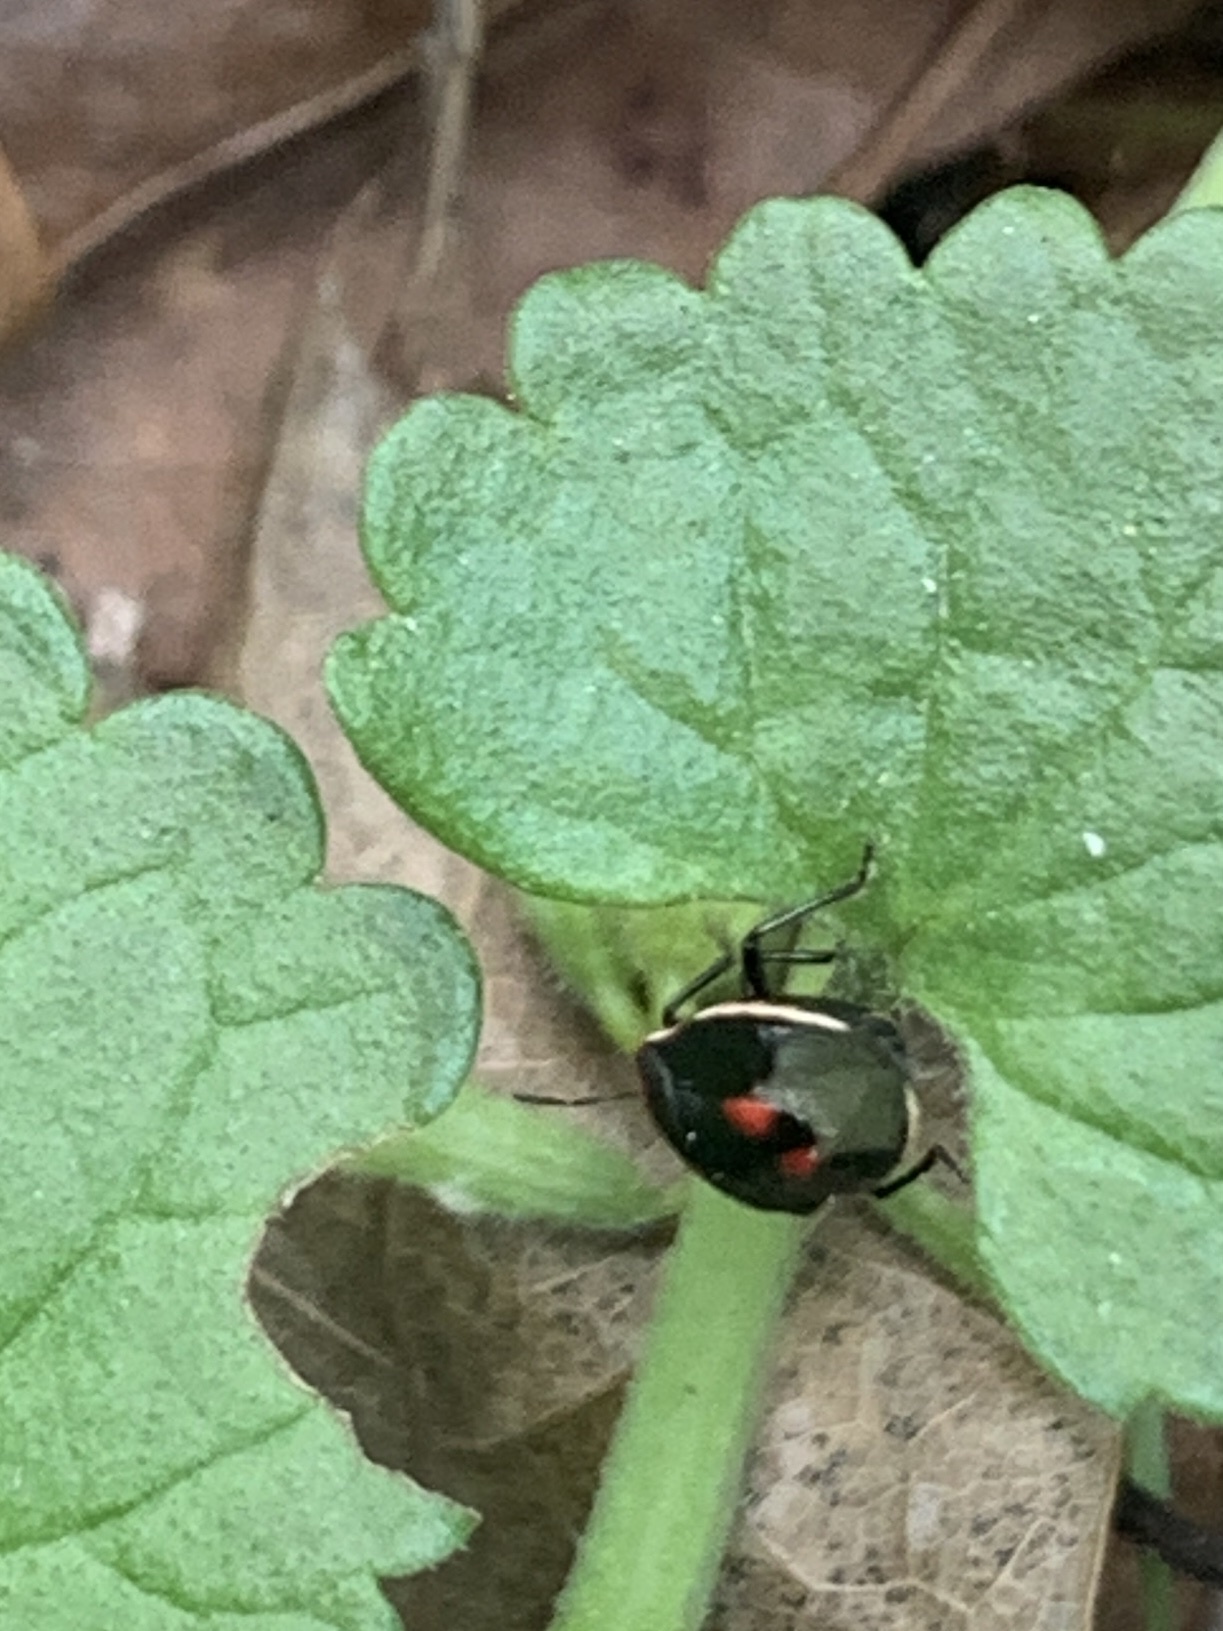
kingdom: Animalia
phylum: Arthropoda
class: Insecta
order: Hemiptera
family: Pentatomidae
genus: Cosmopepla
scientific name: Cosmopepla lintneriana
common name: Twice-stabbed stink bug
